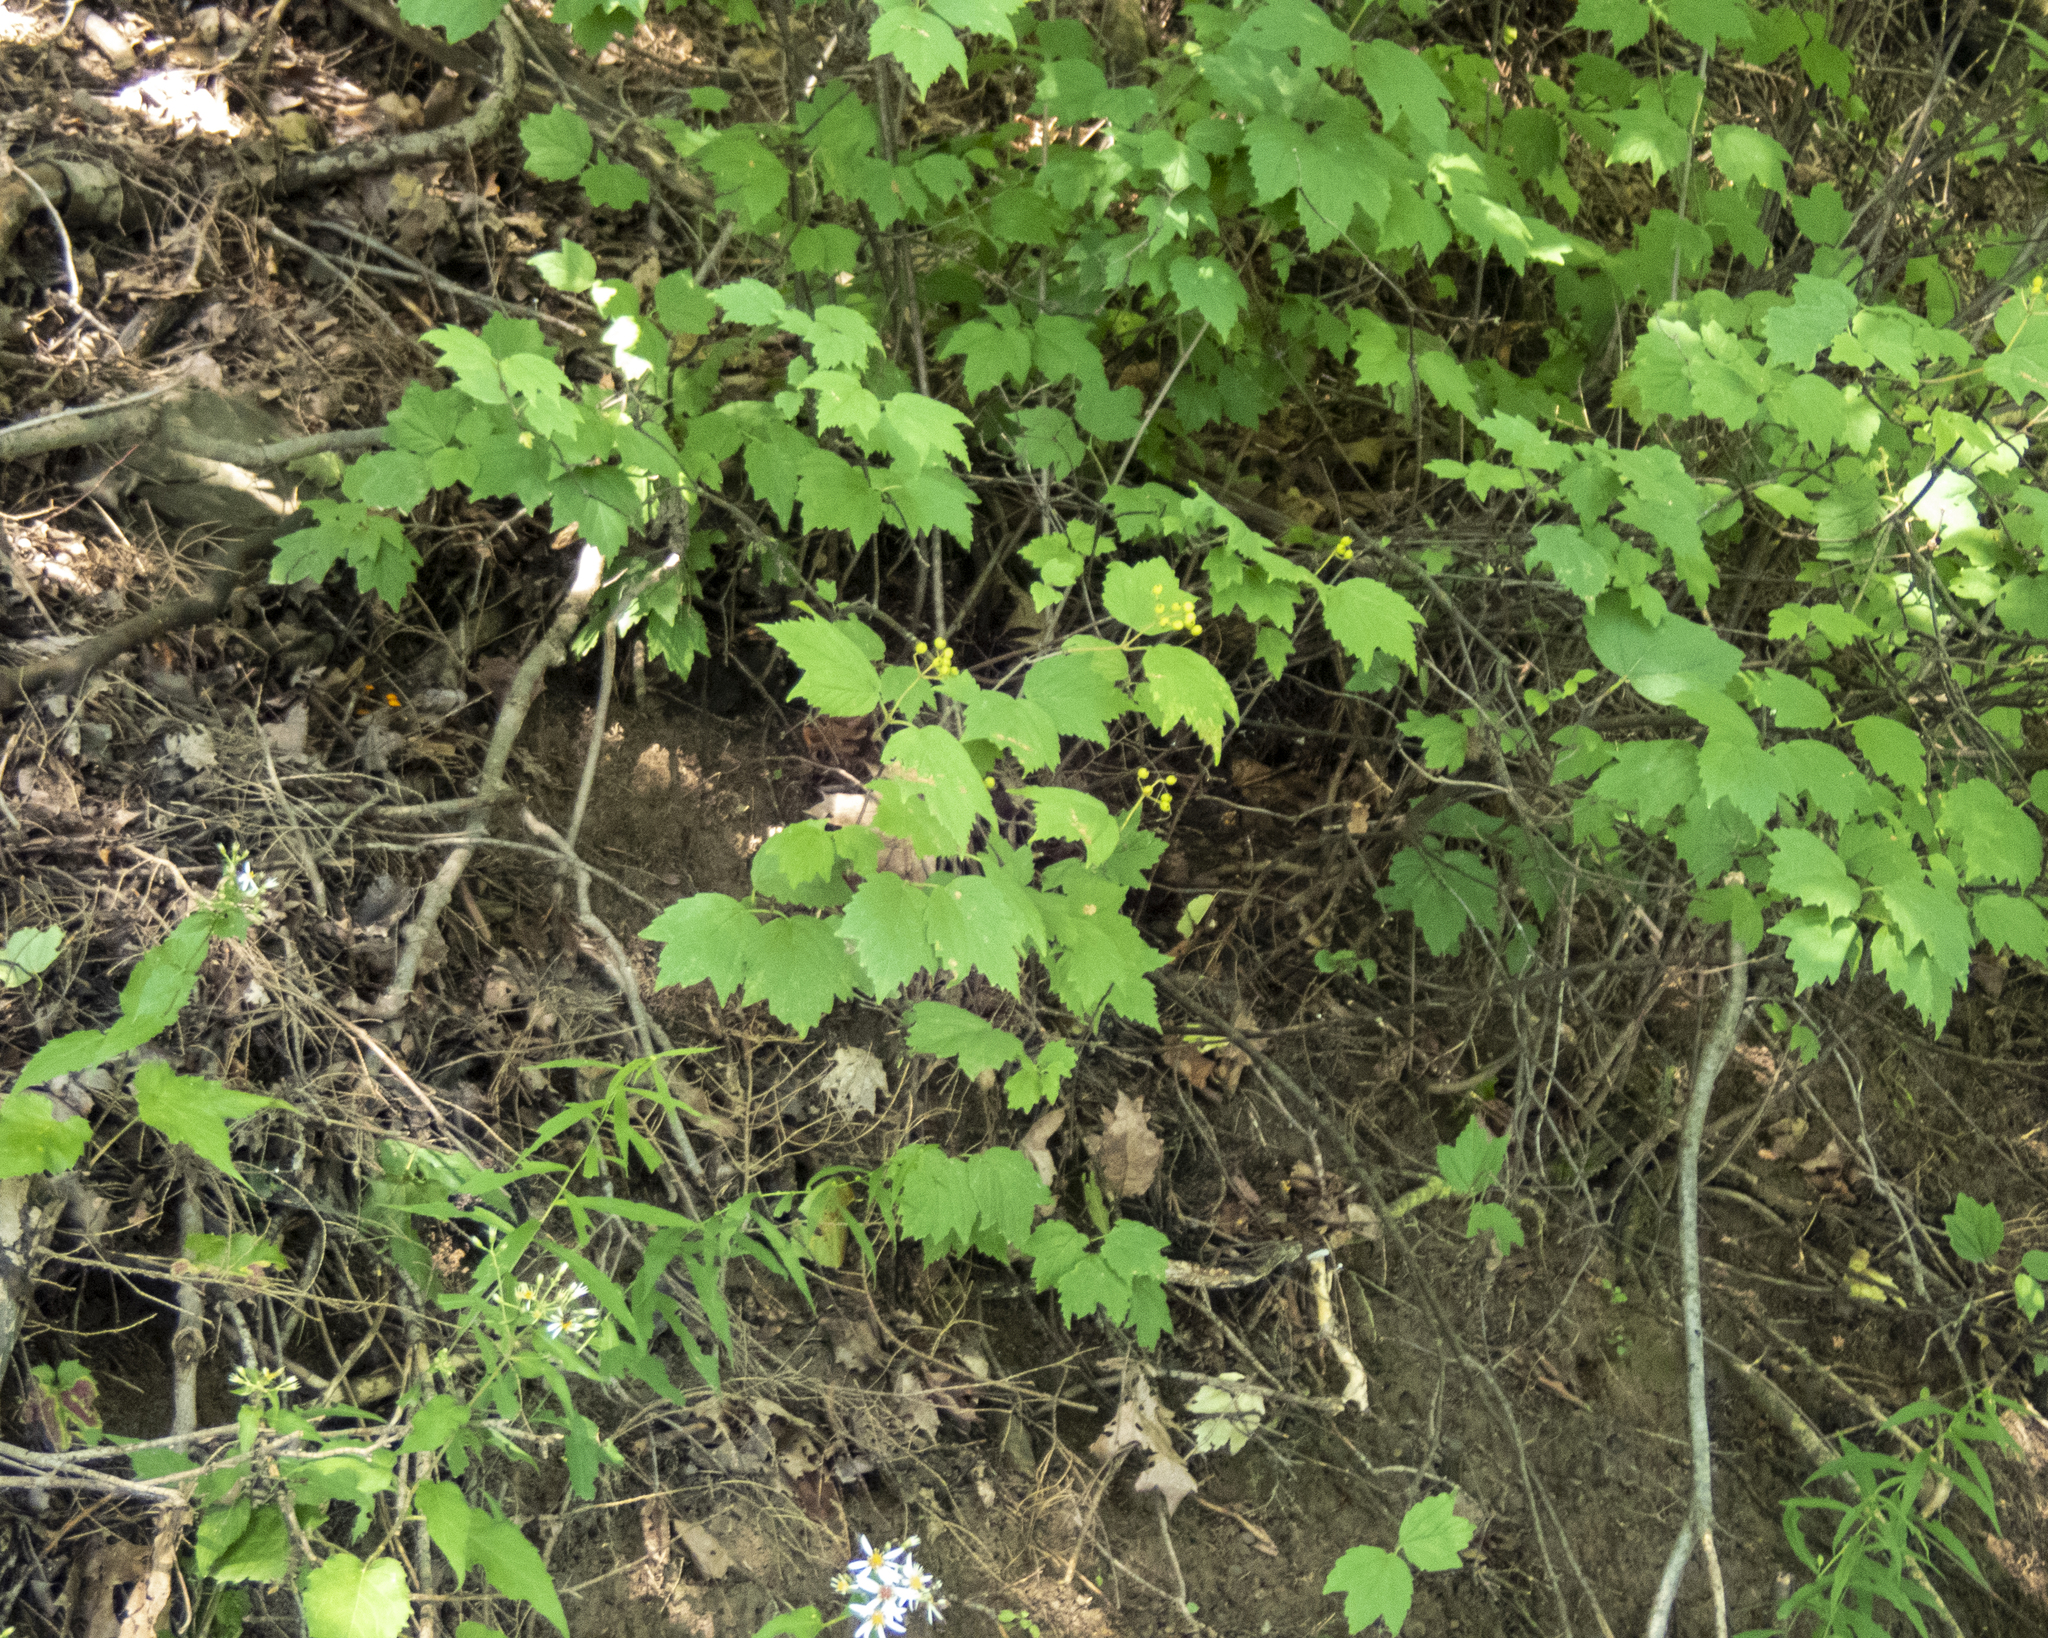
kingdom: Plantae
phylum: Tracheophyta
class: Magnoliopsida
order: Dipsacales
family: Viburnaceae
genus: Viburnum
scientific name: Viburnum acerifolium
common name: Dockmackie
